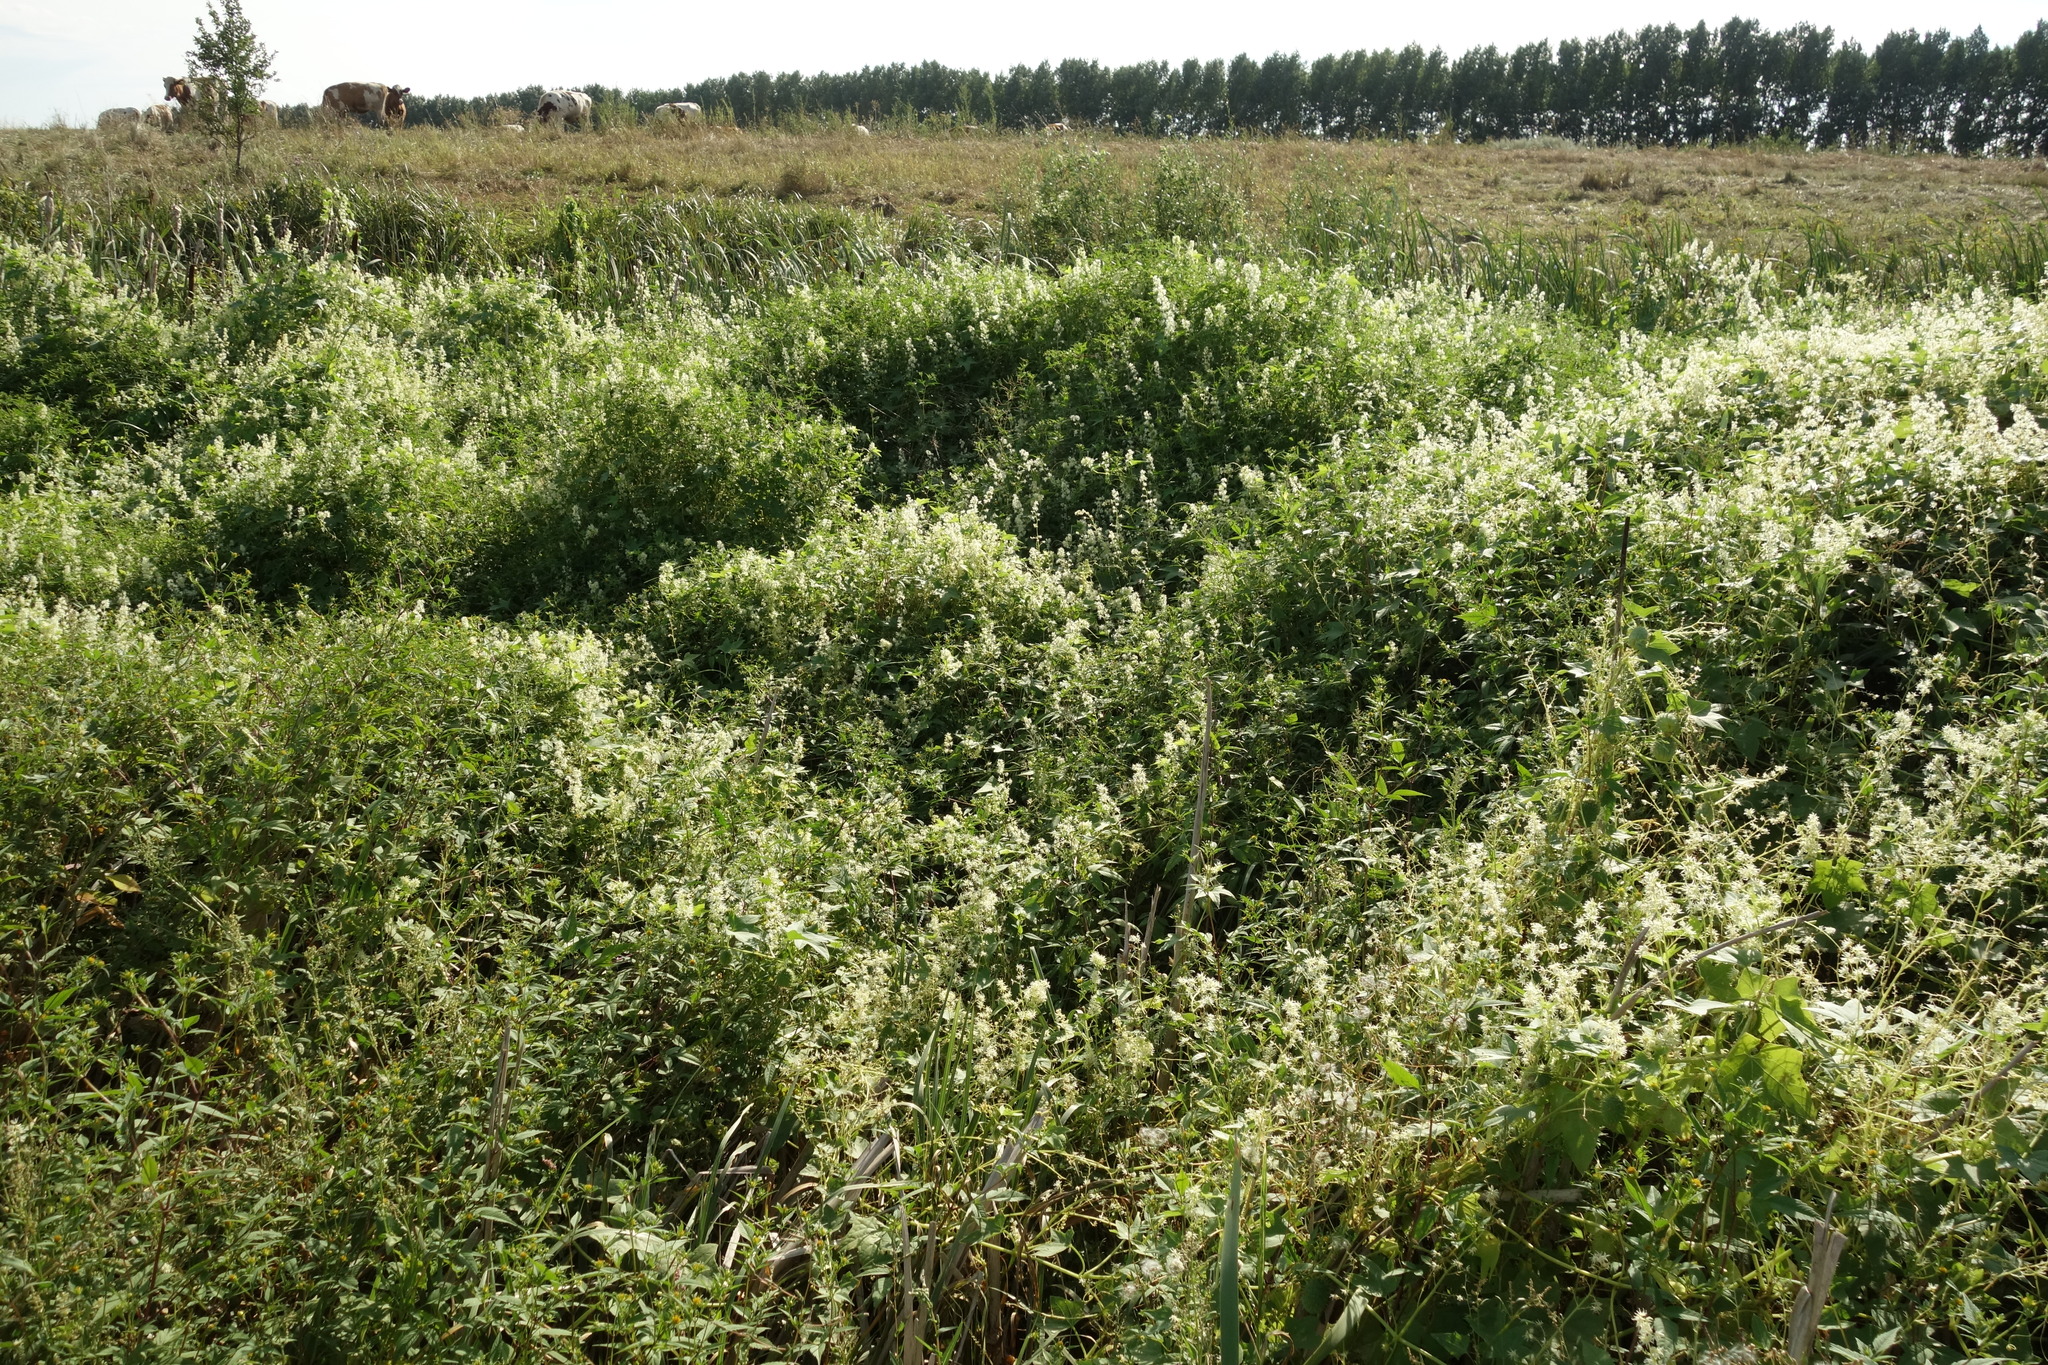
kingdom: Plantae
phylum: Tracheophyta
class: Magnoliopsida
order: Cucurbitales
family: Cucurbitaceae
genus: Echinocystis
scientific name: Echinocystis lobata
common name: Wild cucumber
